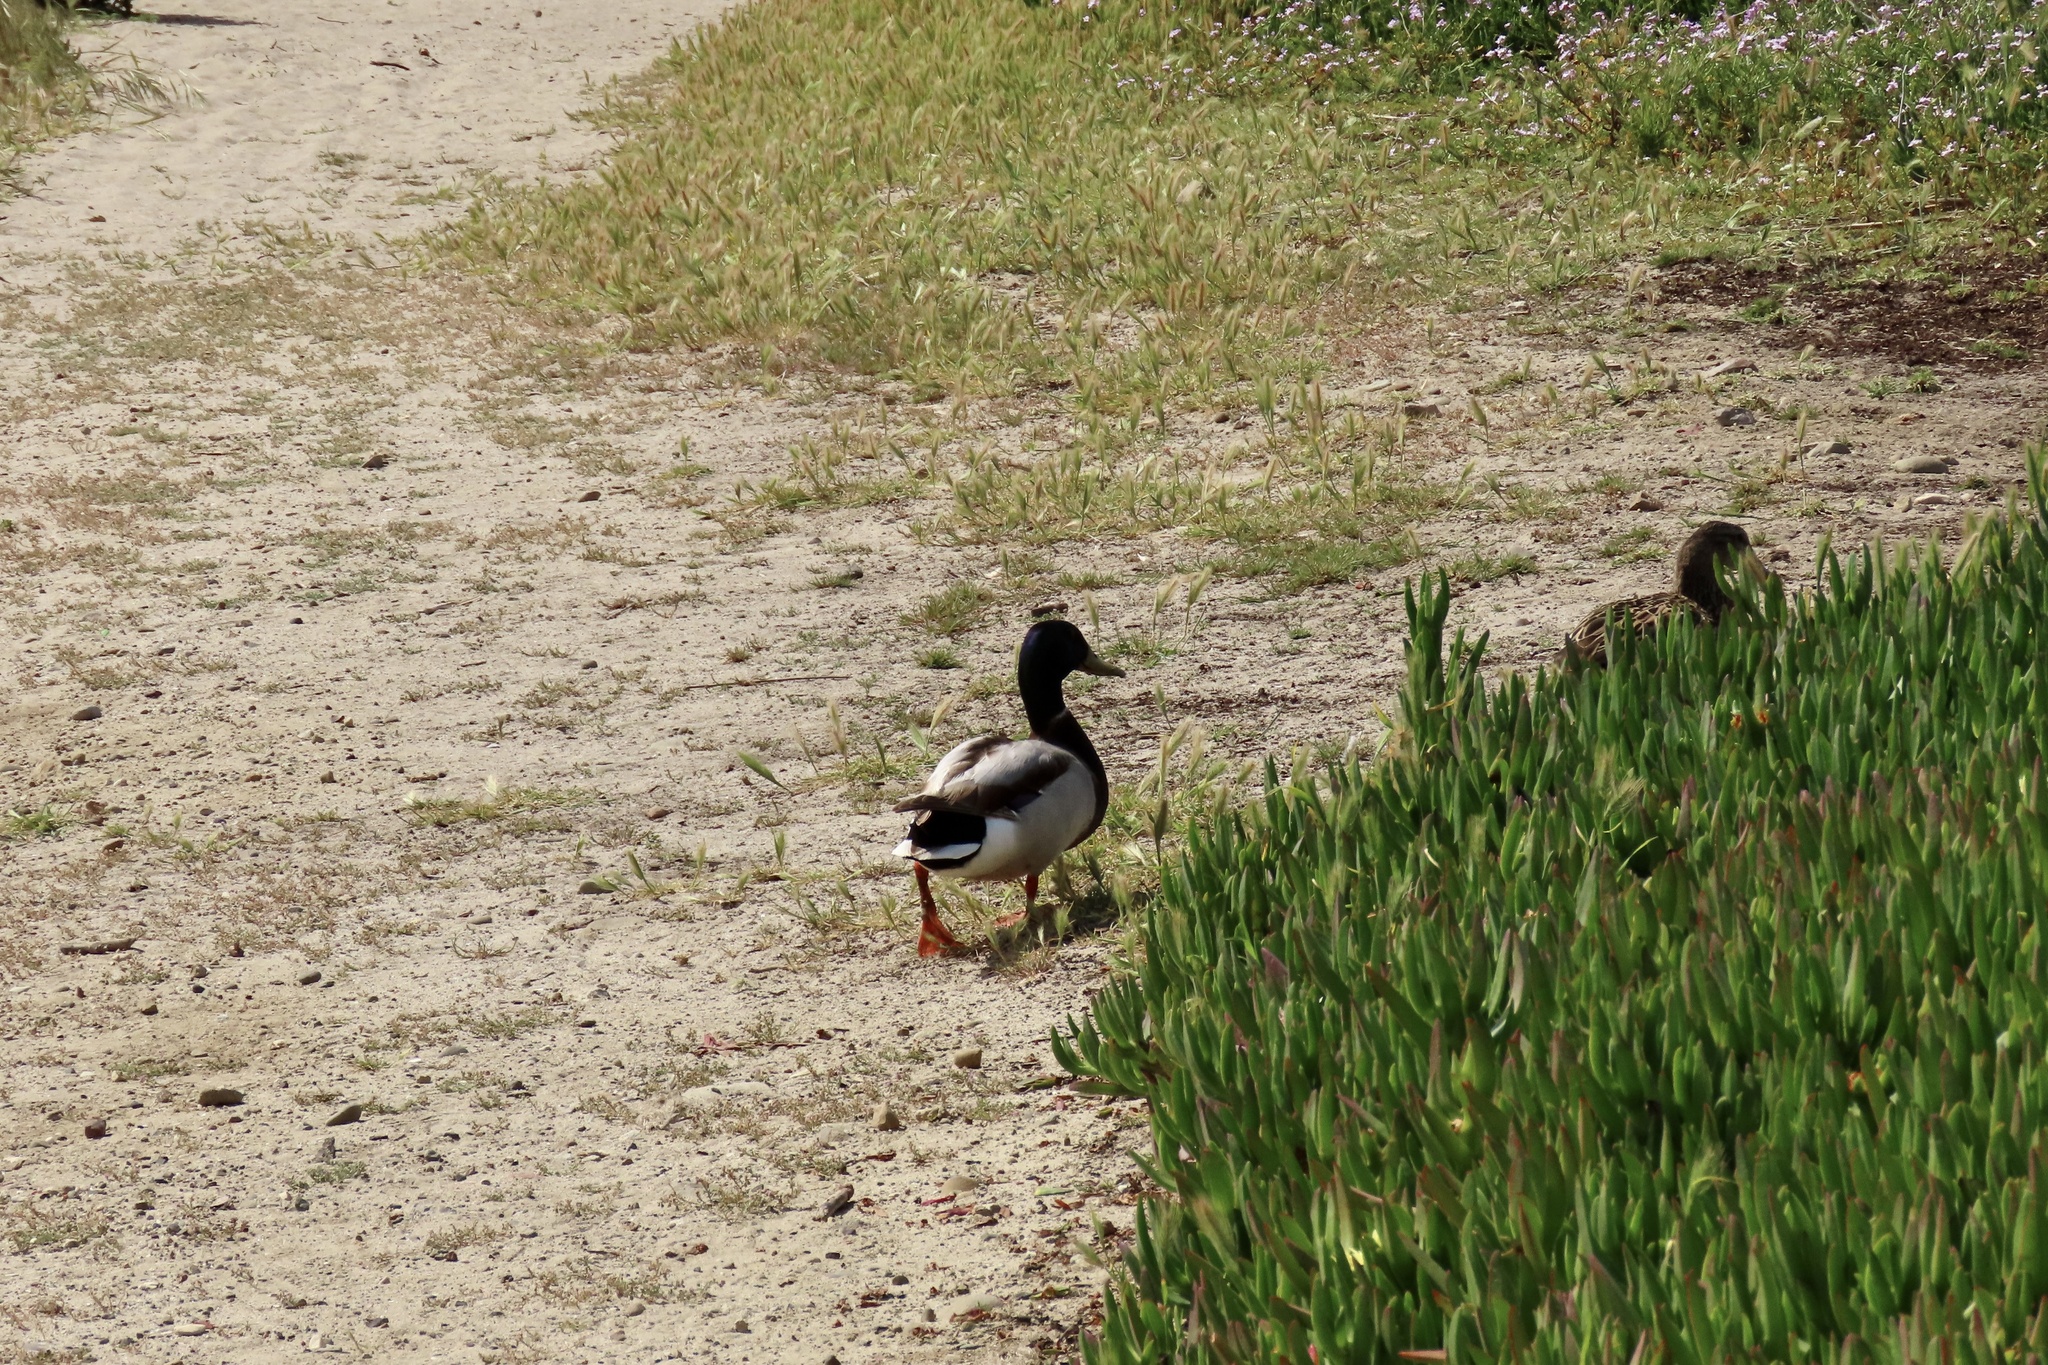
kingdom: Animalia
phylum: Chordata
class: Aves
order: Anseriformes
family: Anatidae
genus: Anas
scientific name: Anas platyrhynchos
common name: Mallard
